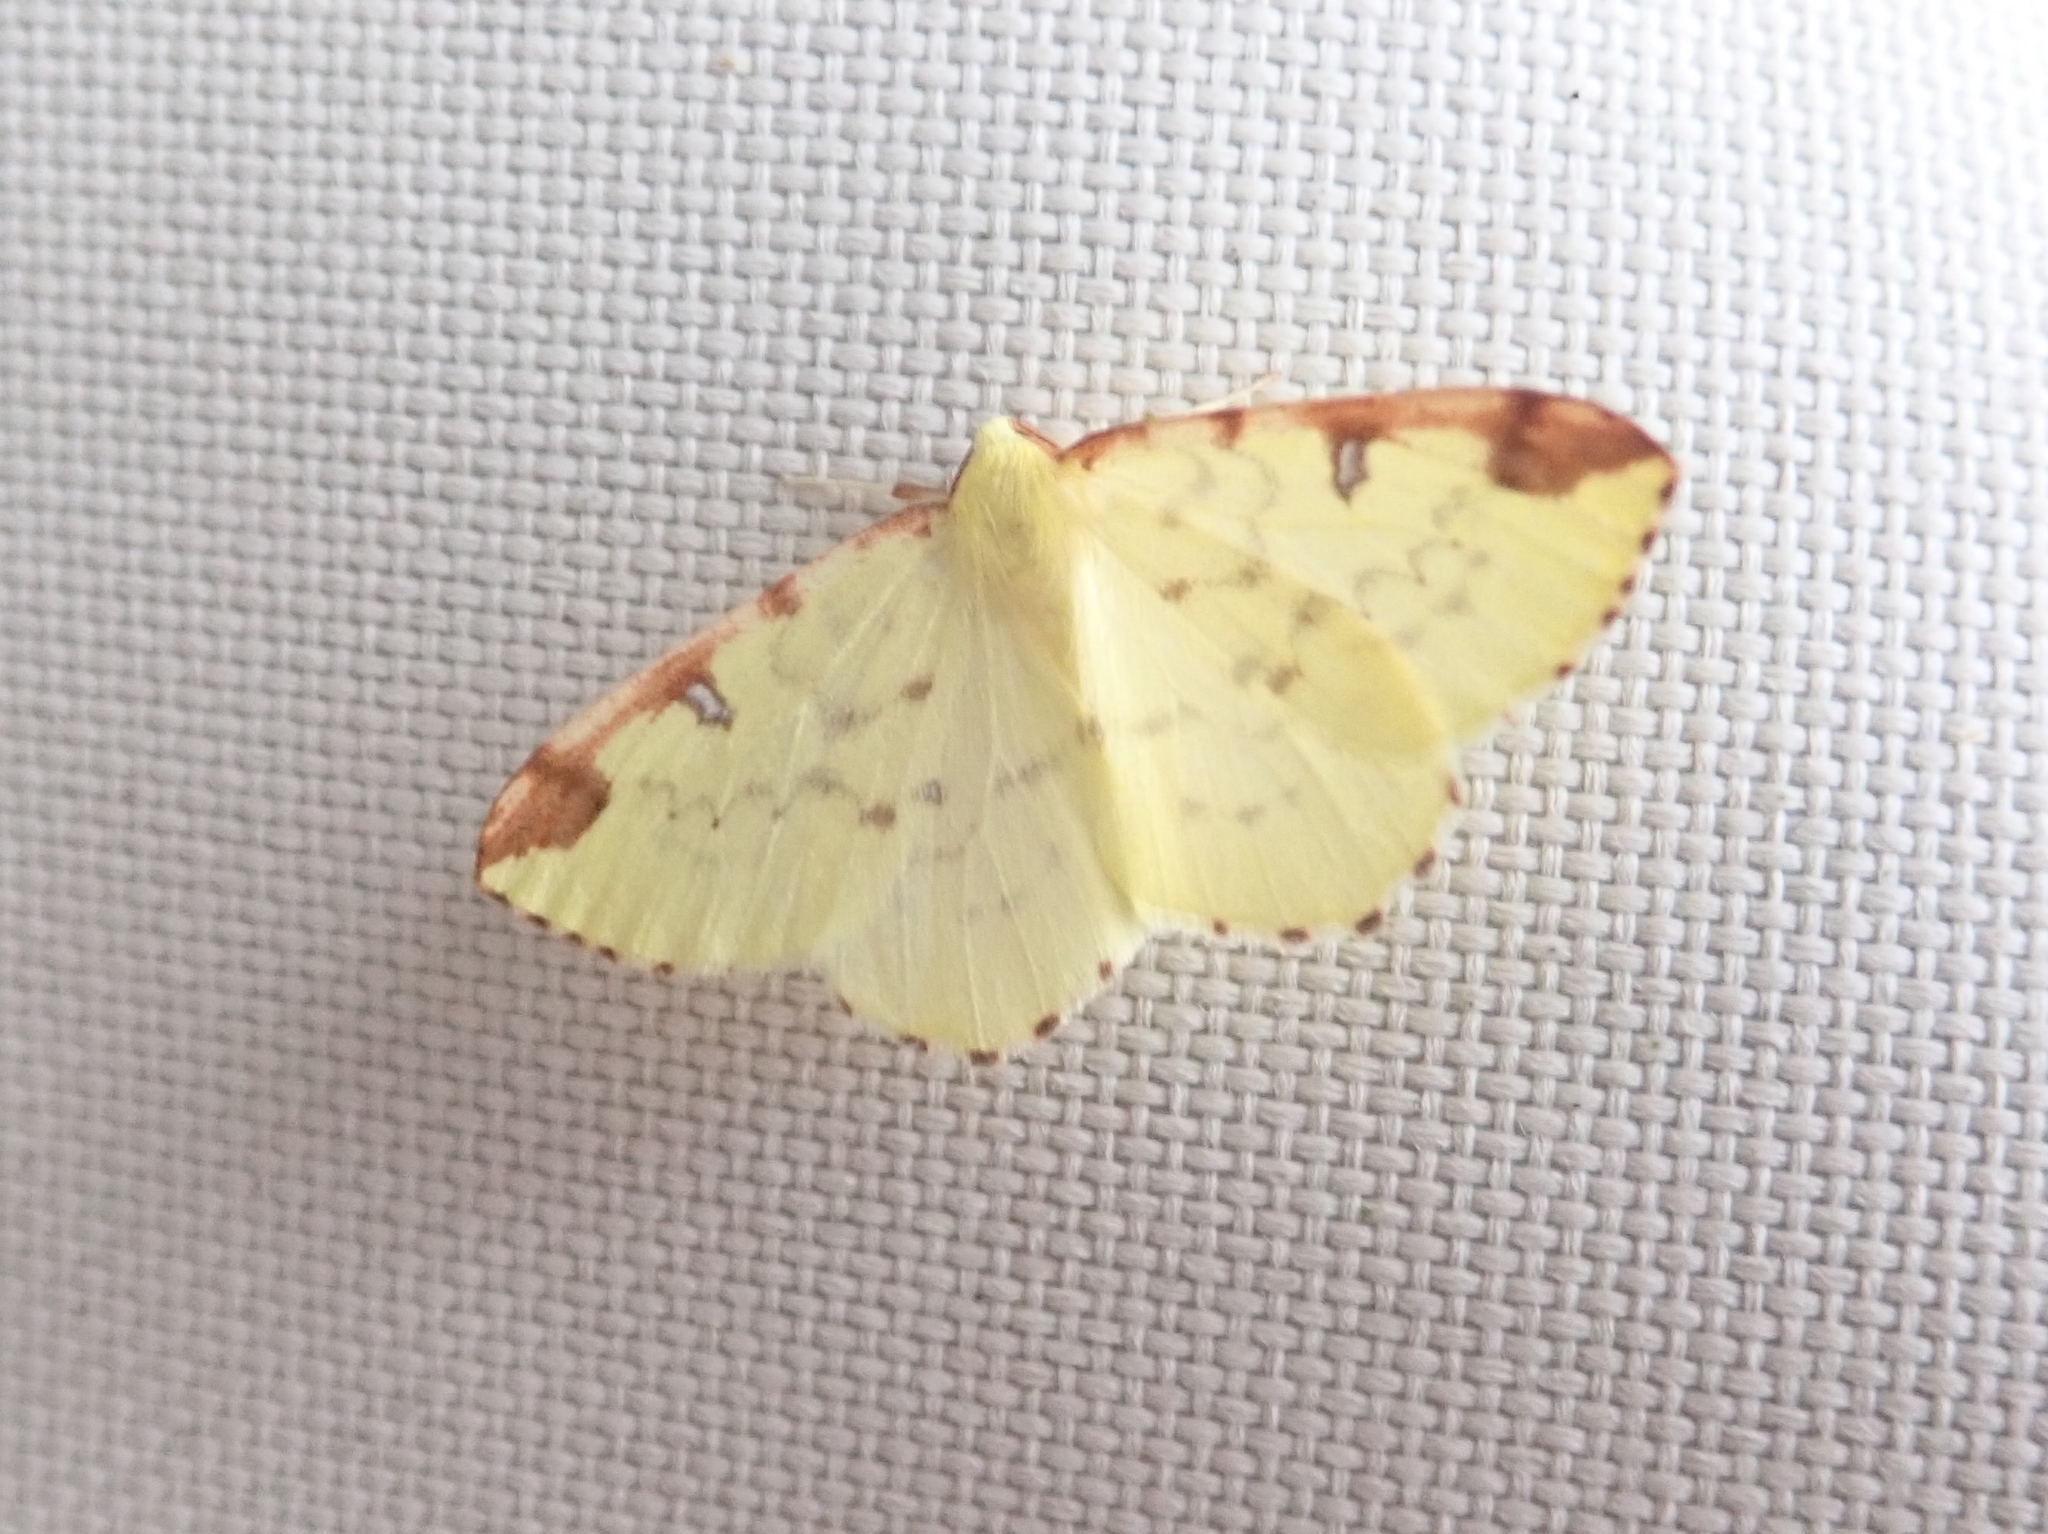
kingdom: Animalia
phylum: Arthropoda
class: Insecta
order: Lepidoptera
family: Geometridae
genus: Opisthograptis
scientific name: Opisthograptis luteolata
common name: Brimstone moth
